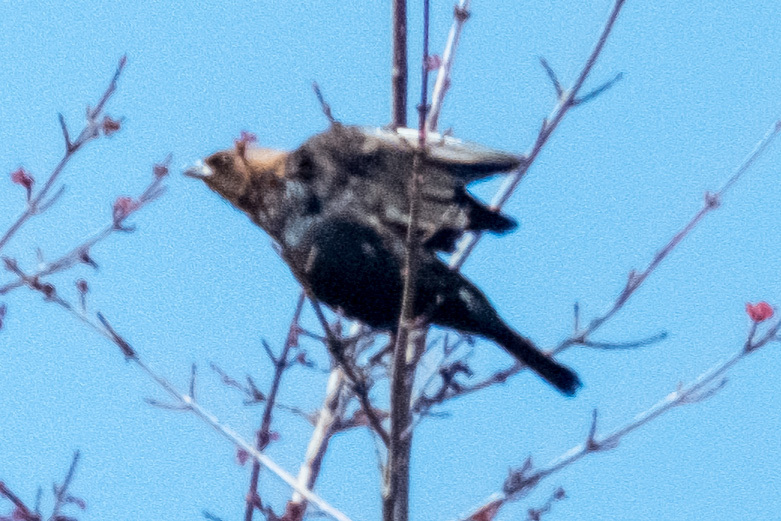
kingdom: Animalia
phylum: Chordata
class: Aves
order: Passeriformes
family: Icteridae
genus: Molothrus
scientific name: Molothrus ater
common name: Brown-headed cowbird
